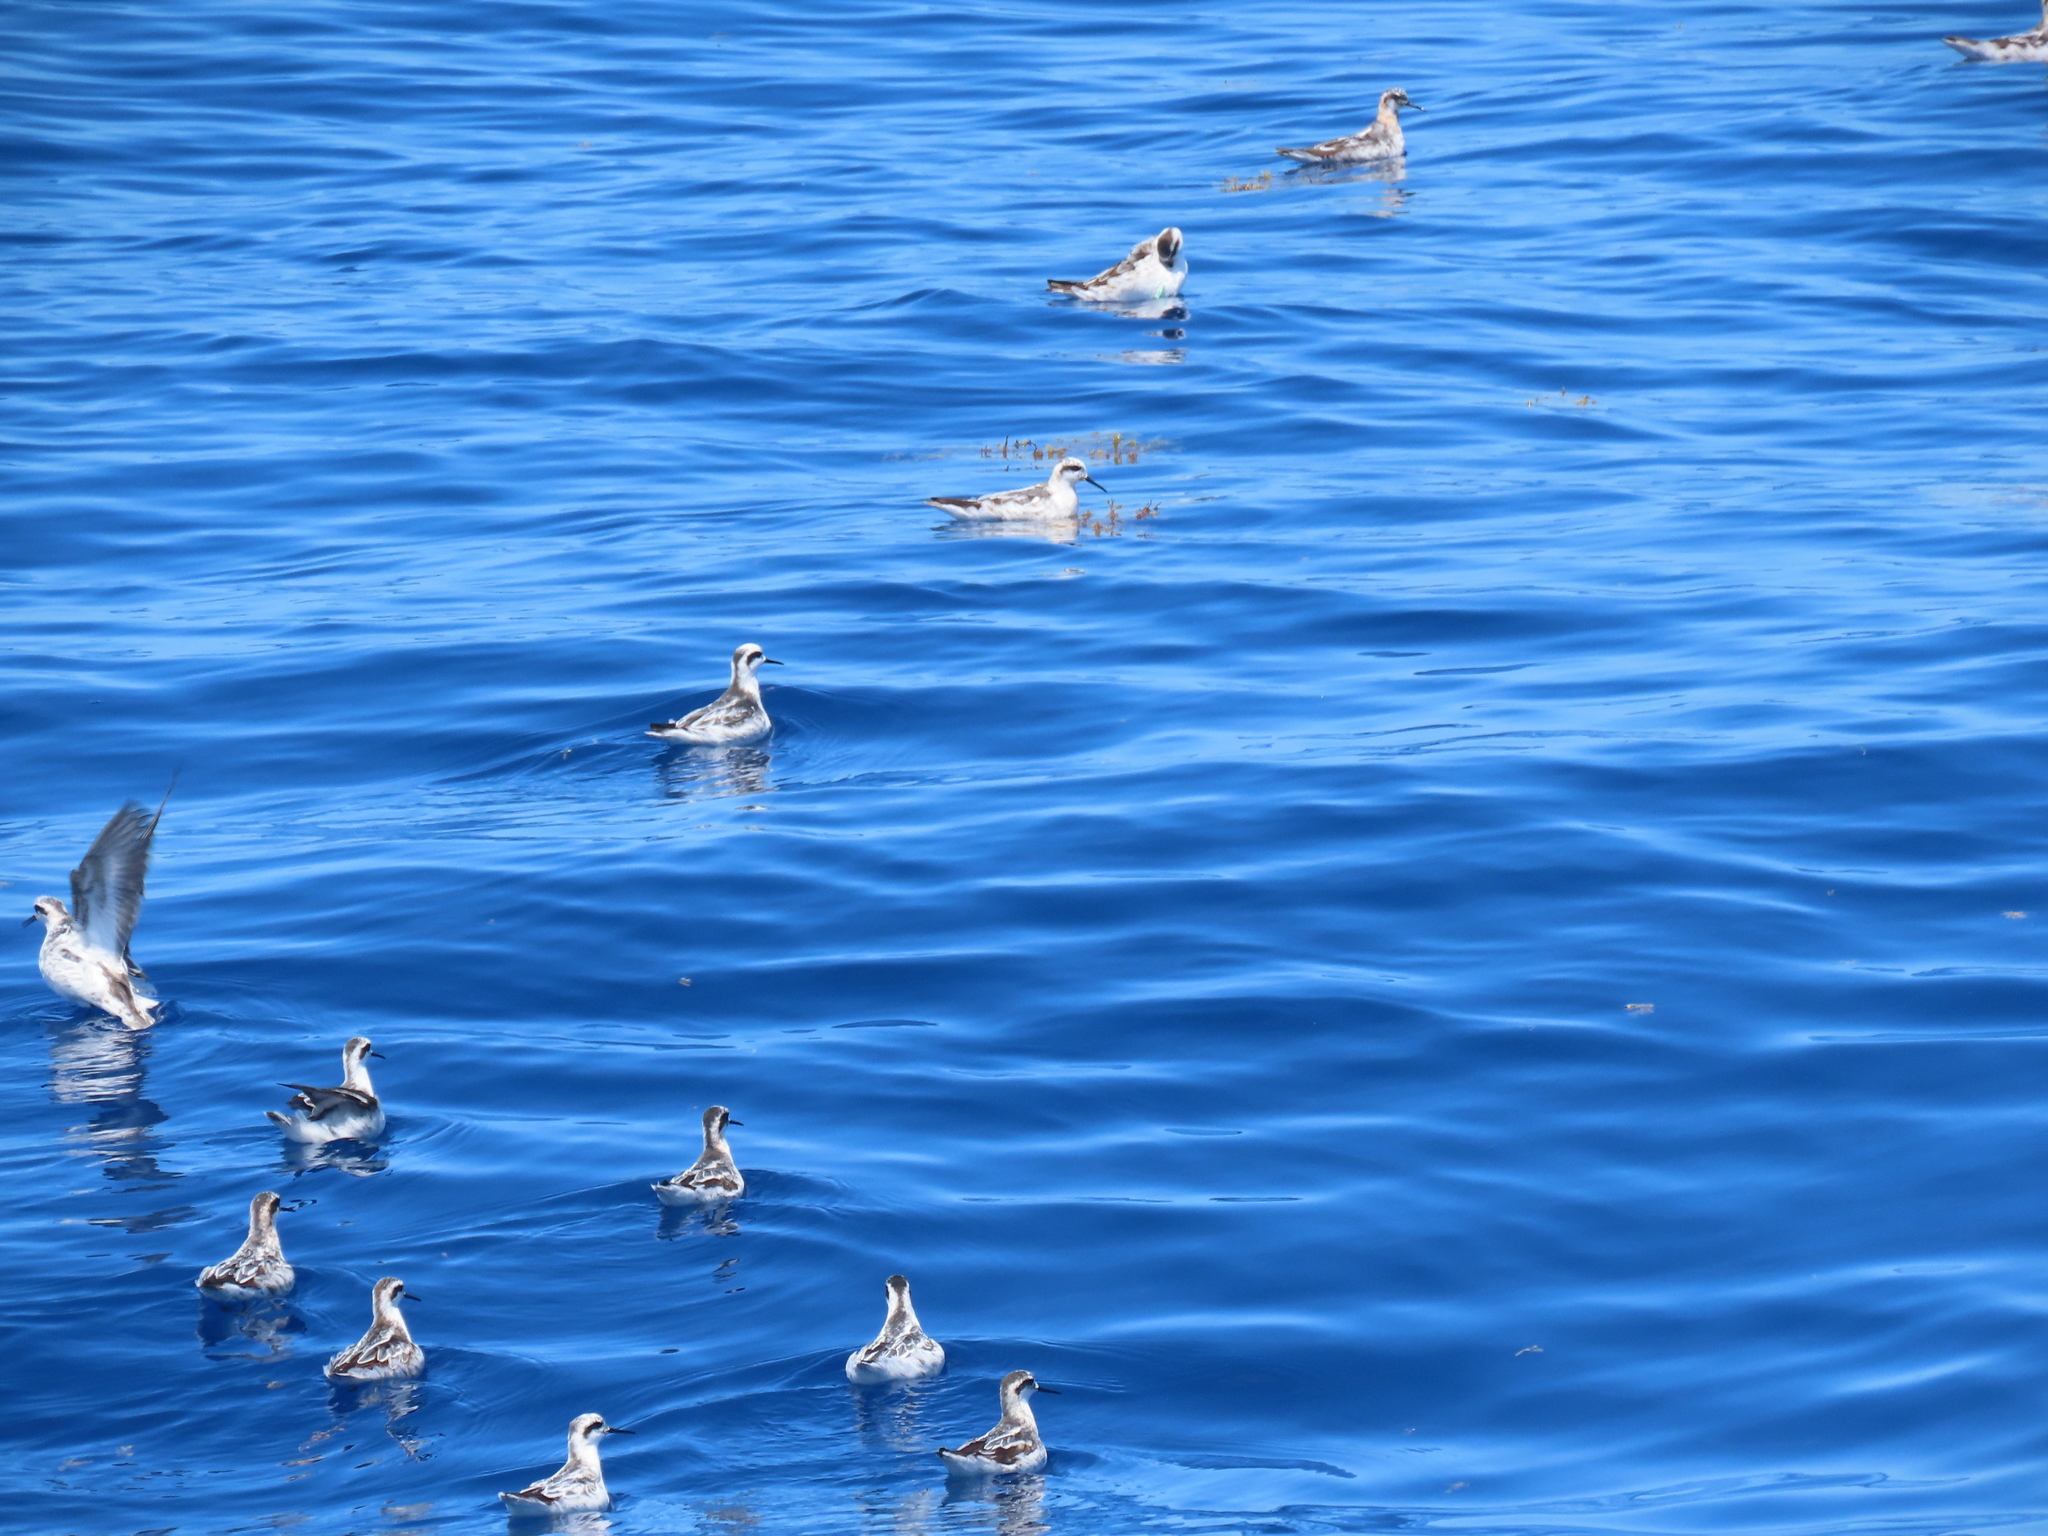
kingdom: Animalia
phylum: Chordata
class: Aves
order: Charadriiformes
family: Scolopacidae
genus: Phalaropus
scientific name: Phalaropus lobatus
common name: Red-necked phalarope
